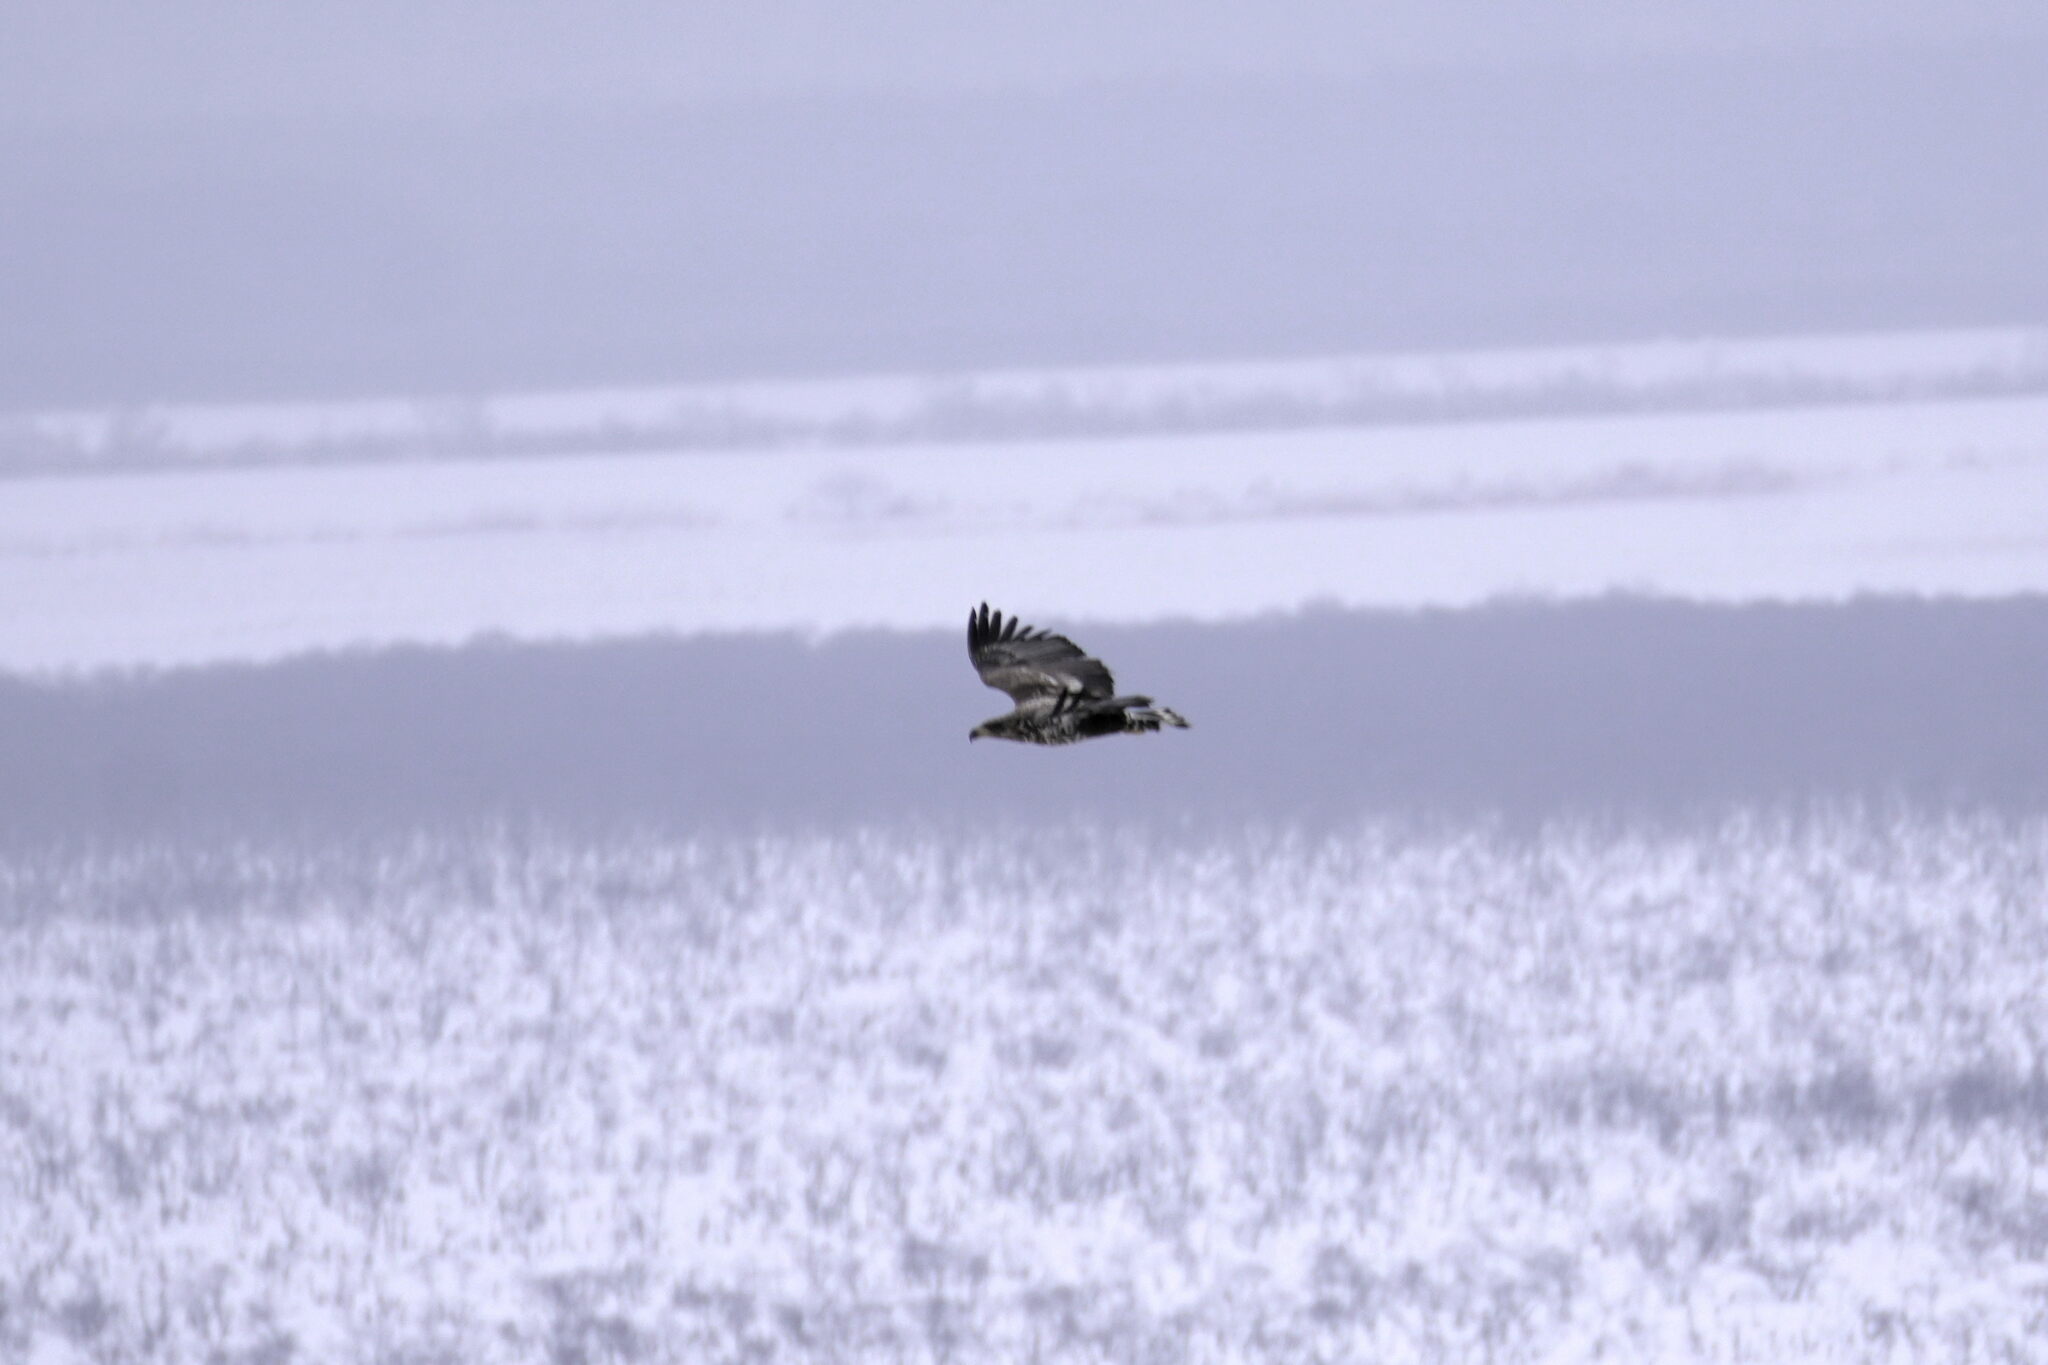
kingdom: Animalia
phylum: Chordata
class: Aves
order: Accipitriformes
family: Accipitridae
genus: Haliaeetus
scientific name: Haliaeetus albicilla
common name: White-tailed eagle
